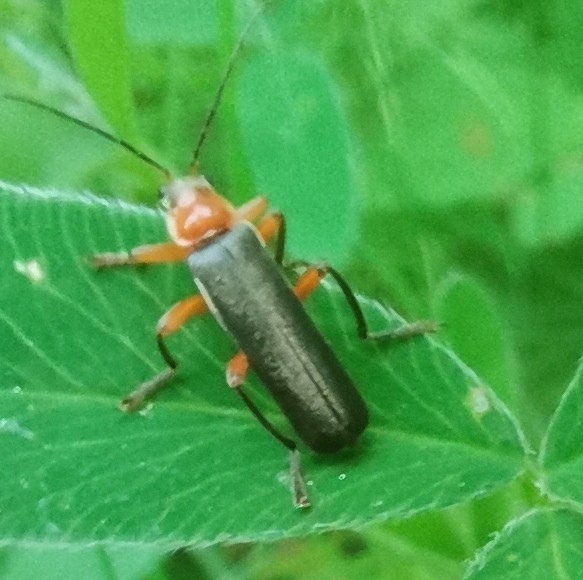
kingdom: Animalia
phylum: Arthropoda
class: Insecta
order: Coleoptera
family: Cantharidae
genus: Cantharis
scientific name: Cantharis pellucida
